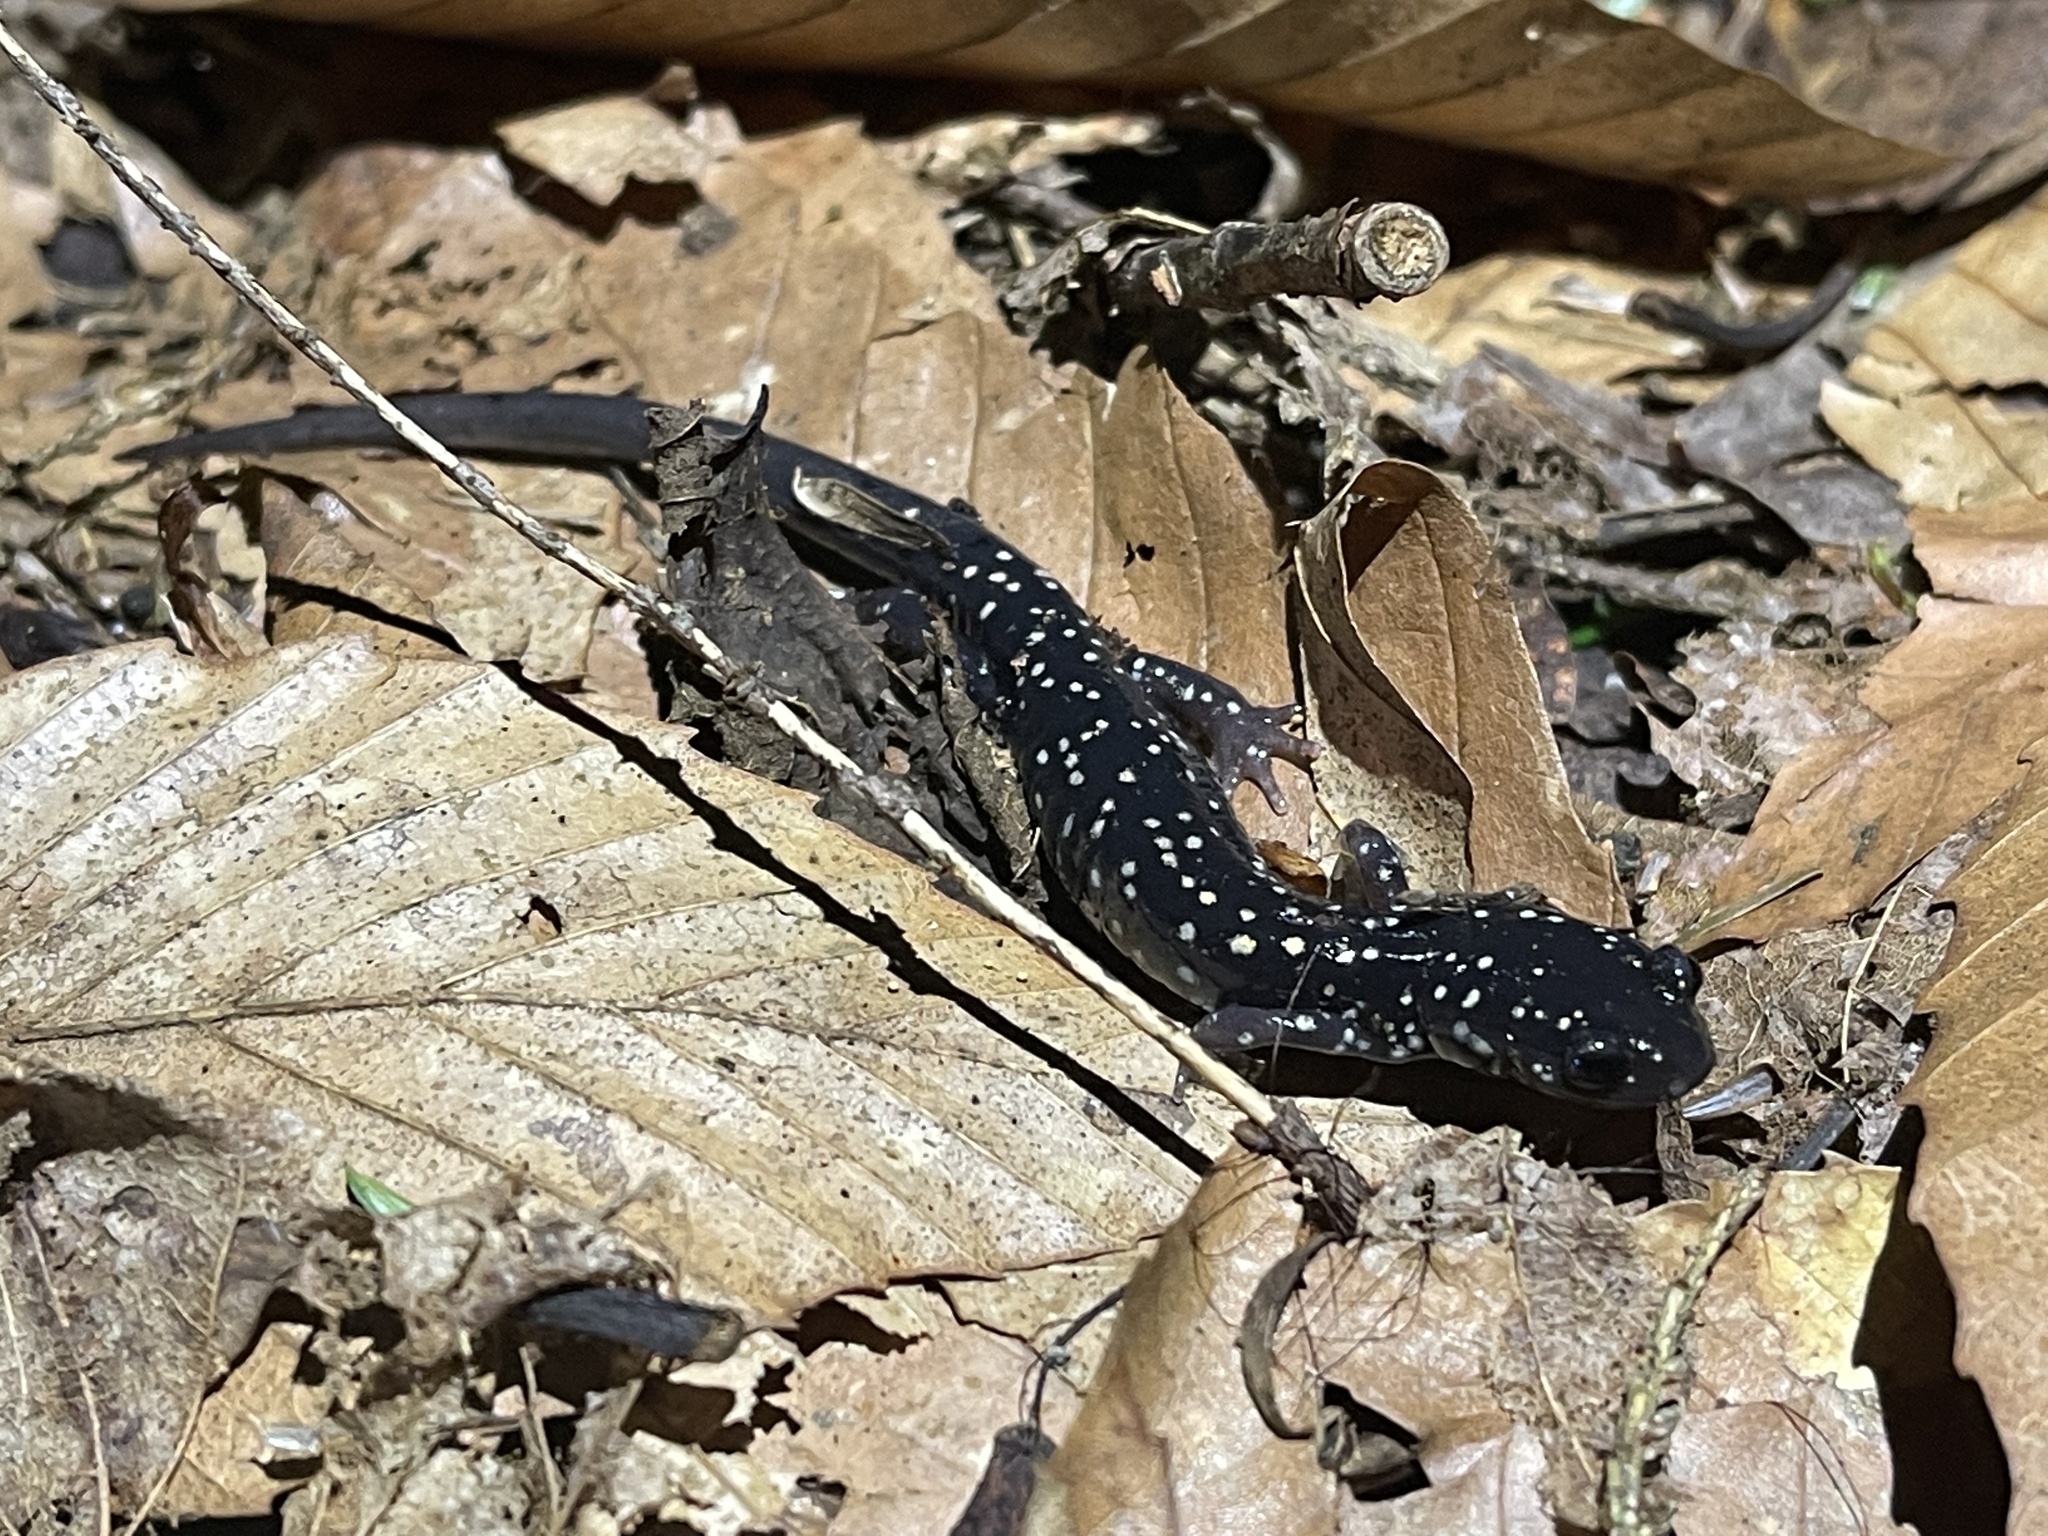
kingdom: Animalia
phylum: Chordata
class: Amphibia
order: Caudata
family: Plethodontidae
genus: Plethodon
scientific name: Plethodon glutinosus
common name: Northern slimy salamander
